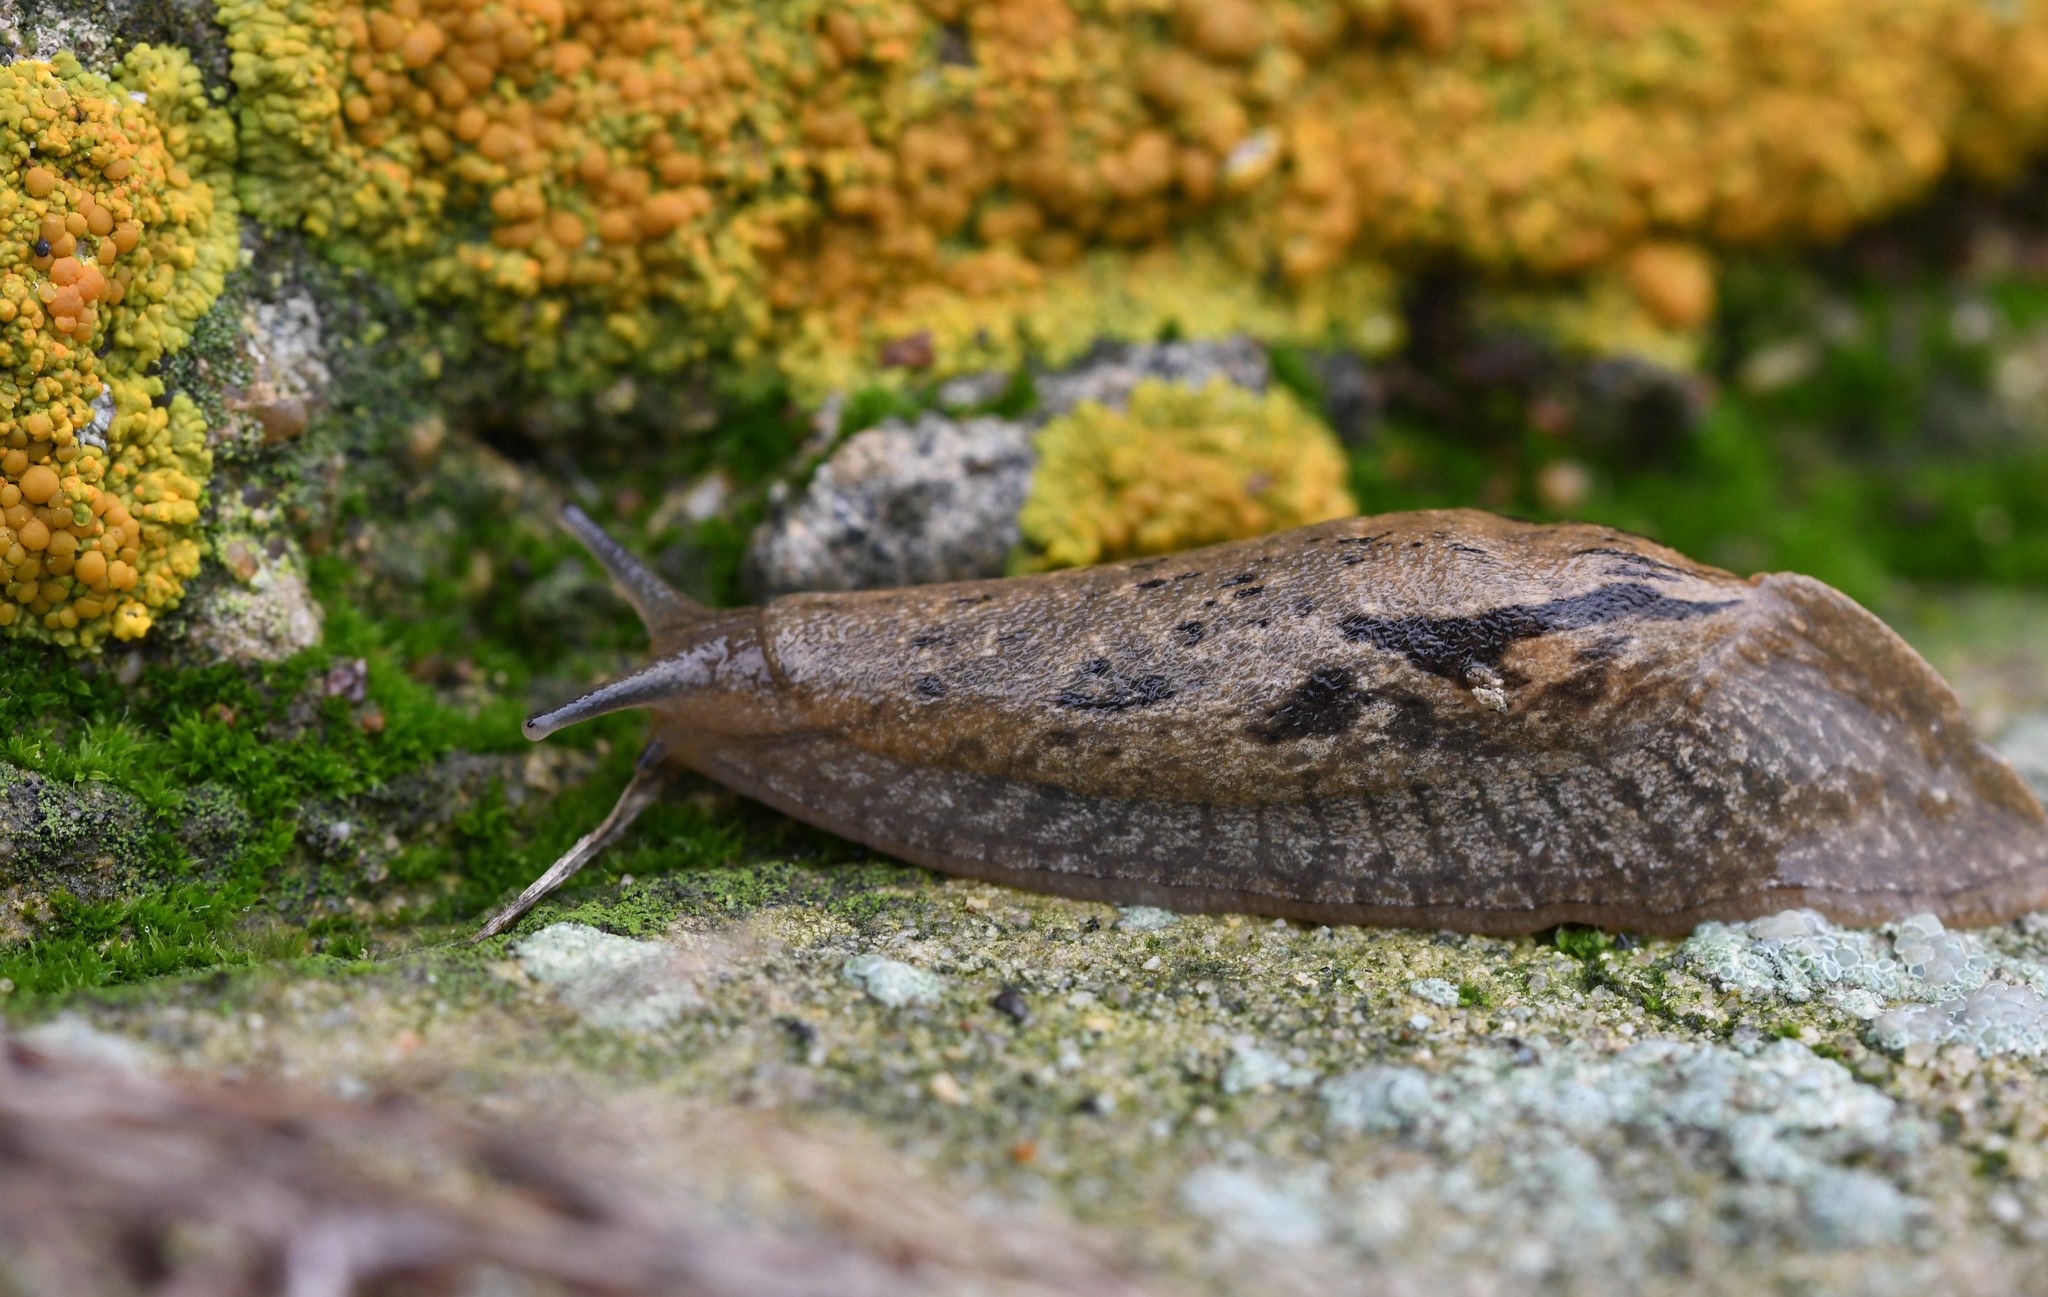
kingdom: Animalia
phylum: Mollusca
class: Gastropoda
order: Stylommatophora
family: Parmacellidae
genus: Drusia
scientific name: Drusia valenciennii
